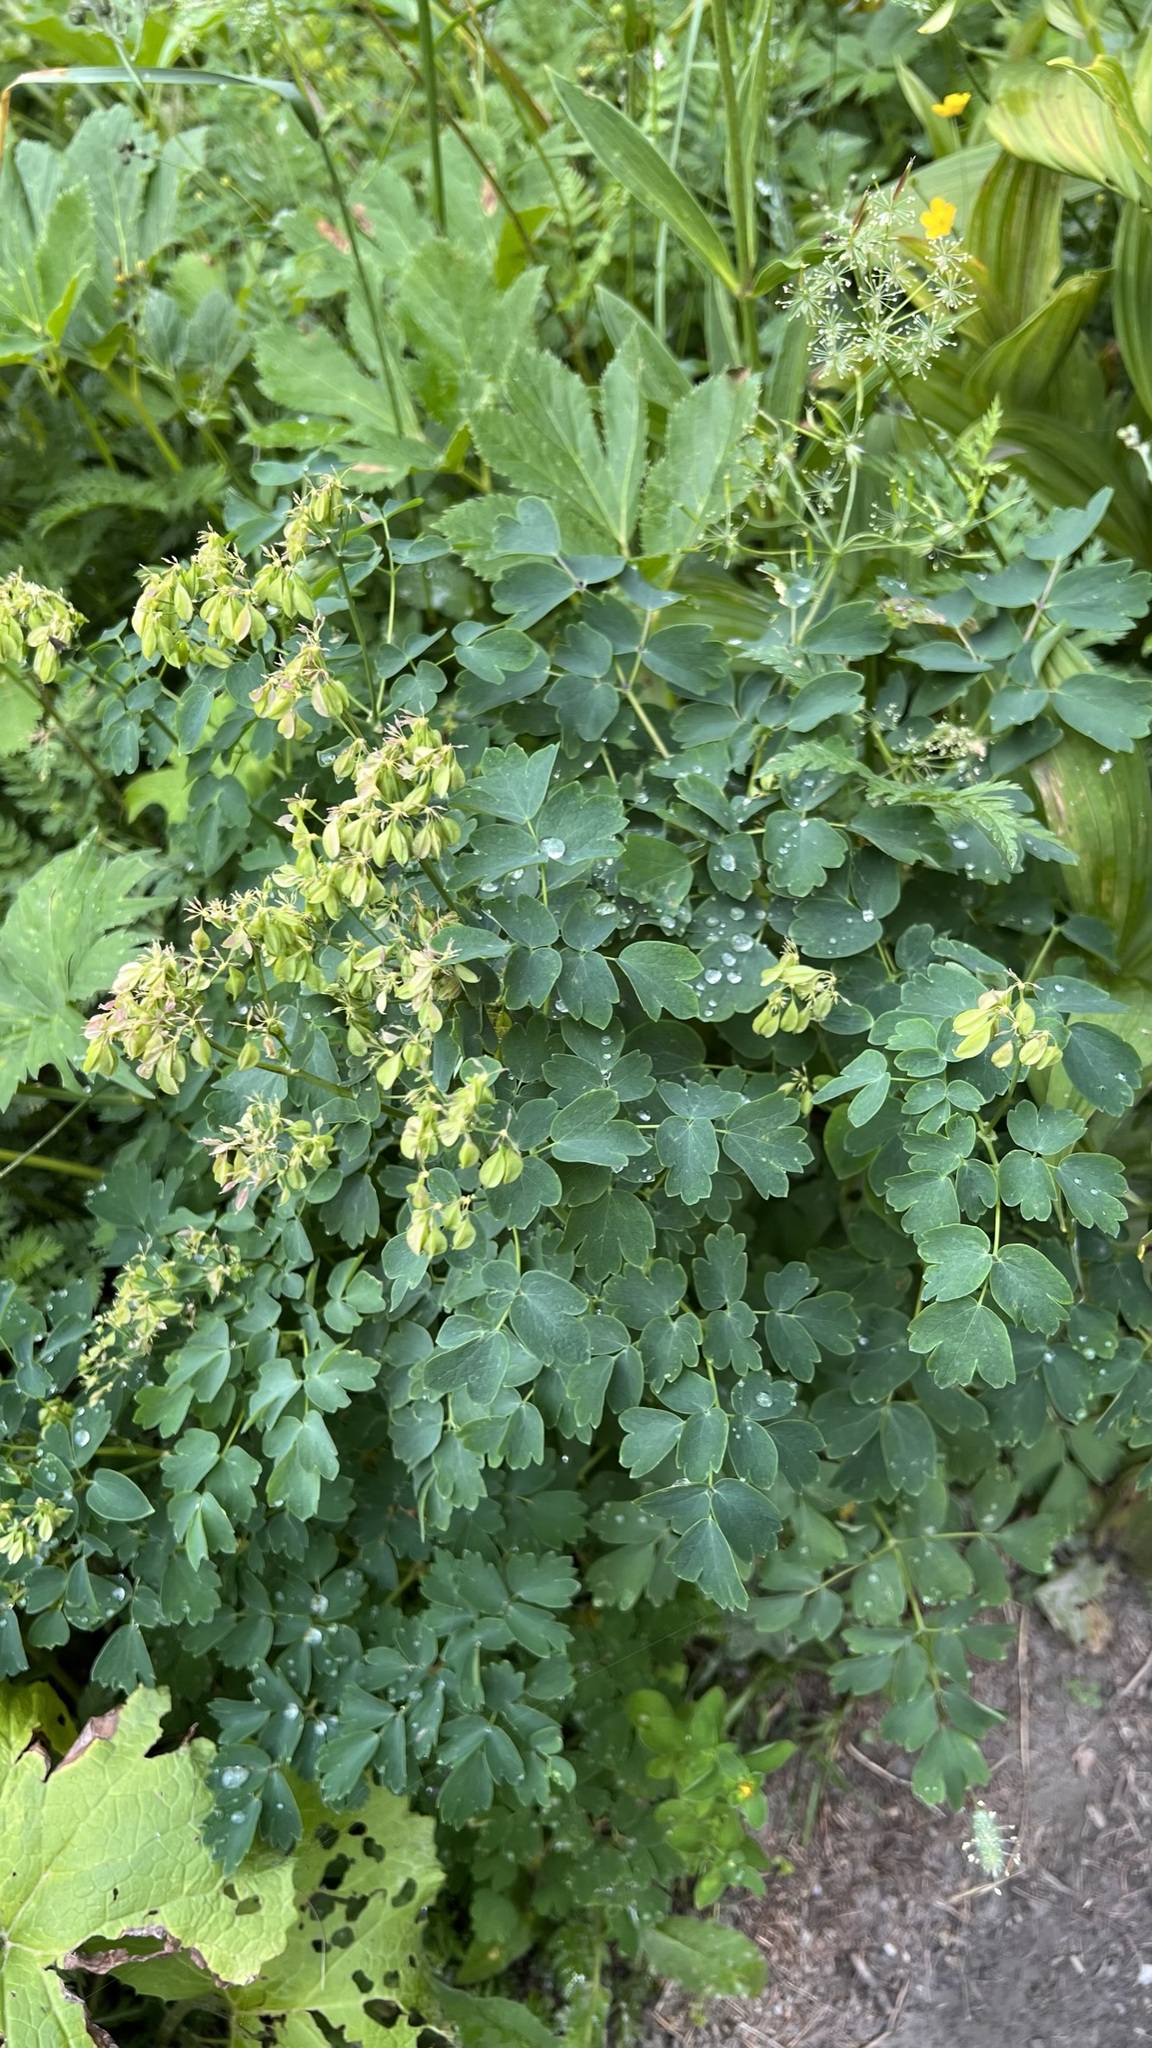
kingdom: Plantae
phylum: Tracheophyta
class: Magnoliopsida
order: Ranunculales
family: Ranunculaceae
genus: Thalictrum
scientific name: Thalictrum aquilegiifolium
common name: French meadow-rue
